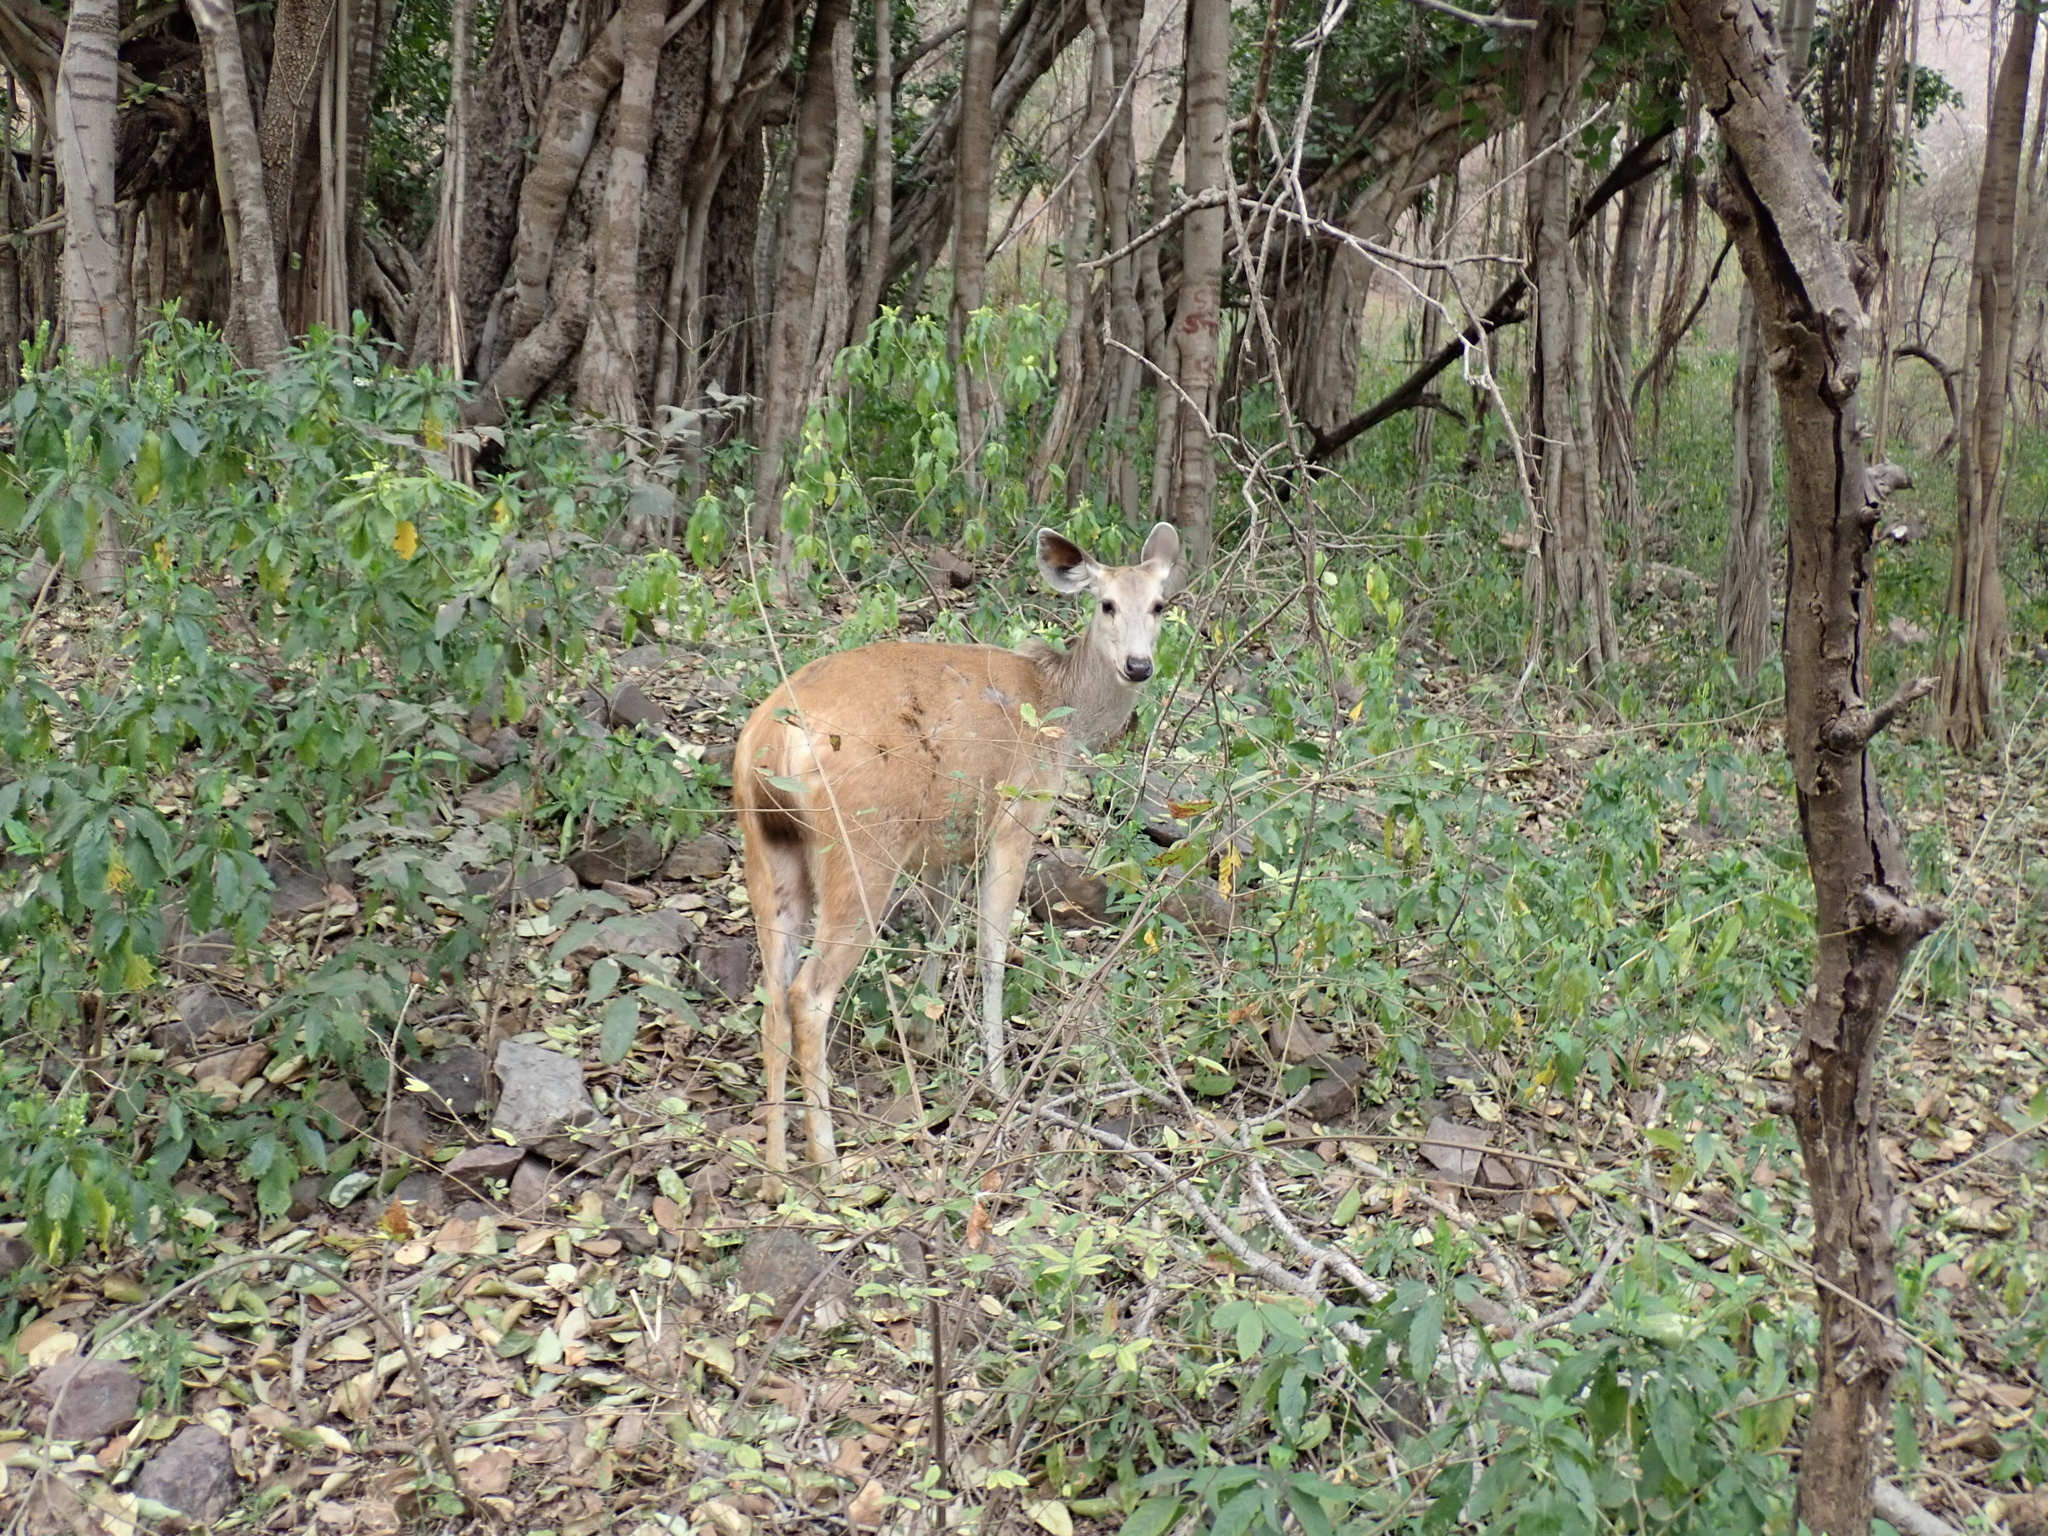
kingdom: Animalia
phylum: Chordata
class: Mammalia
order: Artiodactyla
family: Cervidae
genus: Rusa
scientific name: Rusa unicolor
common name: Sambar
